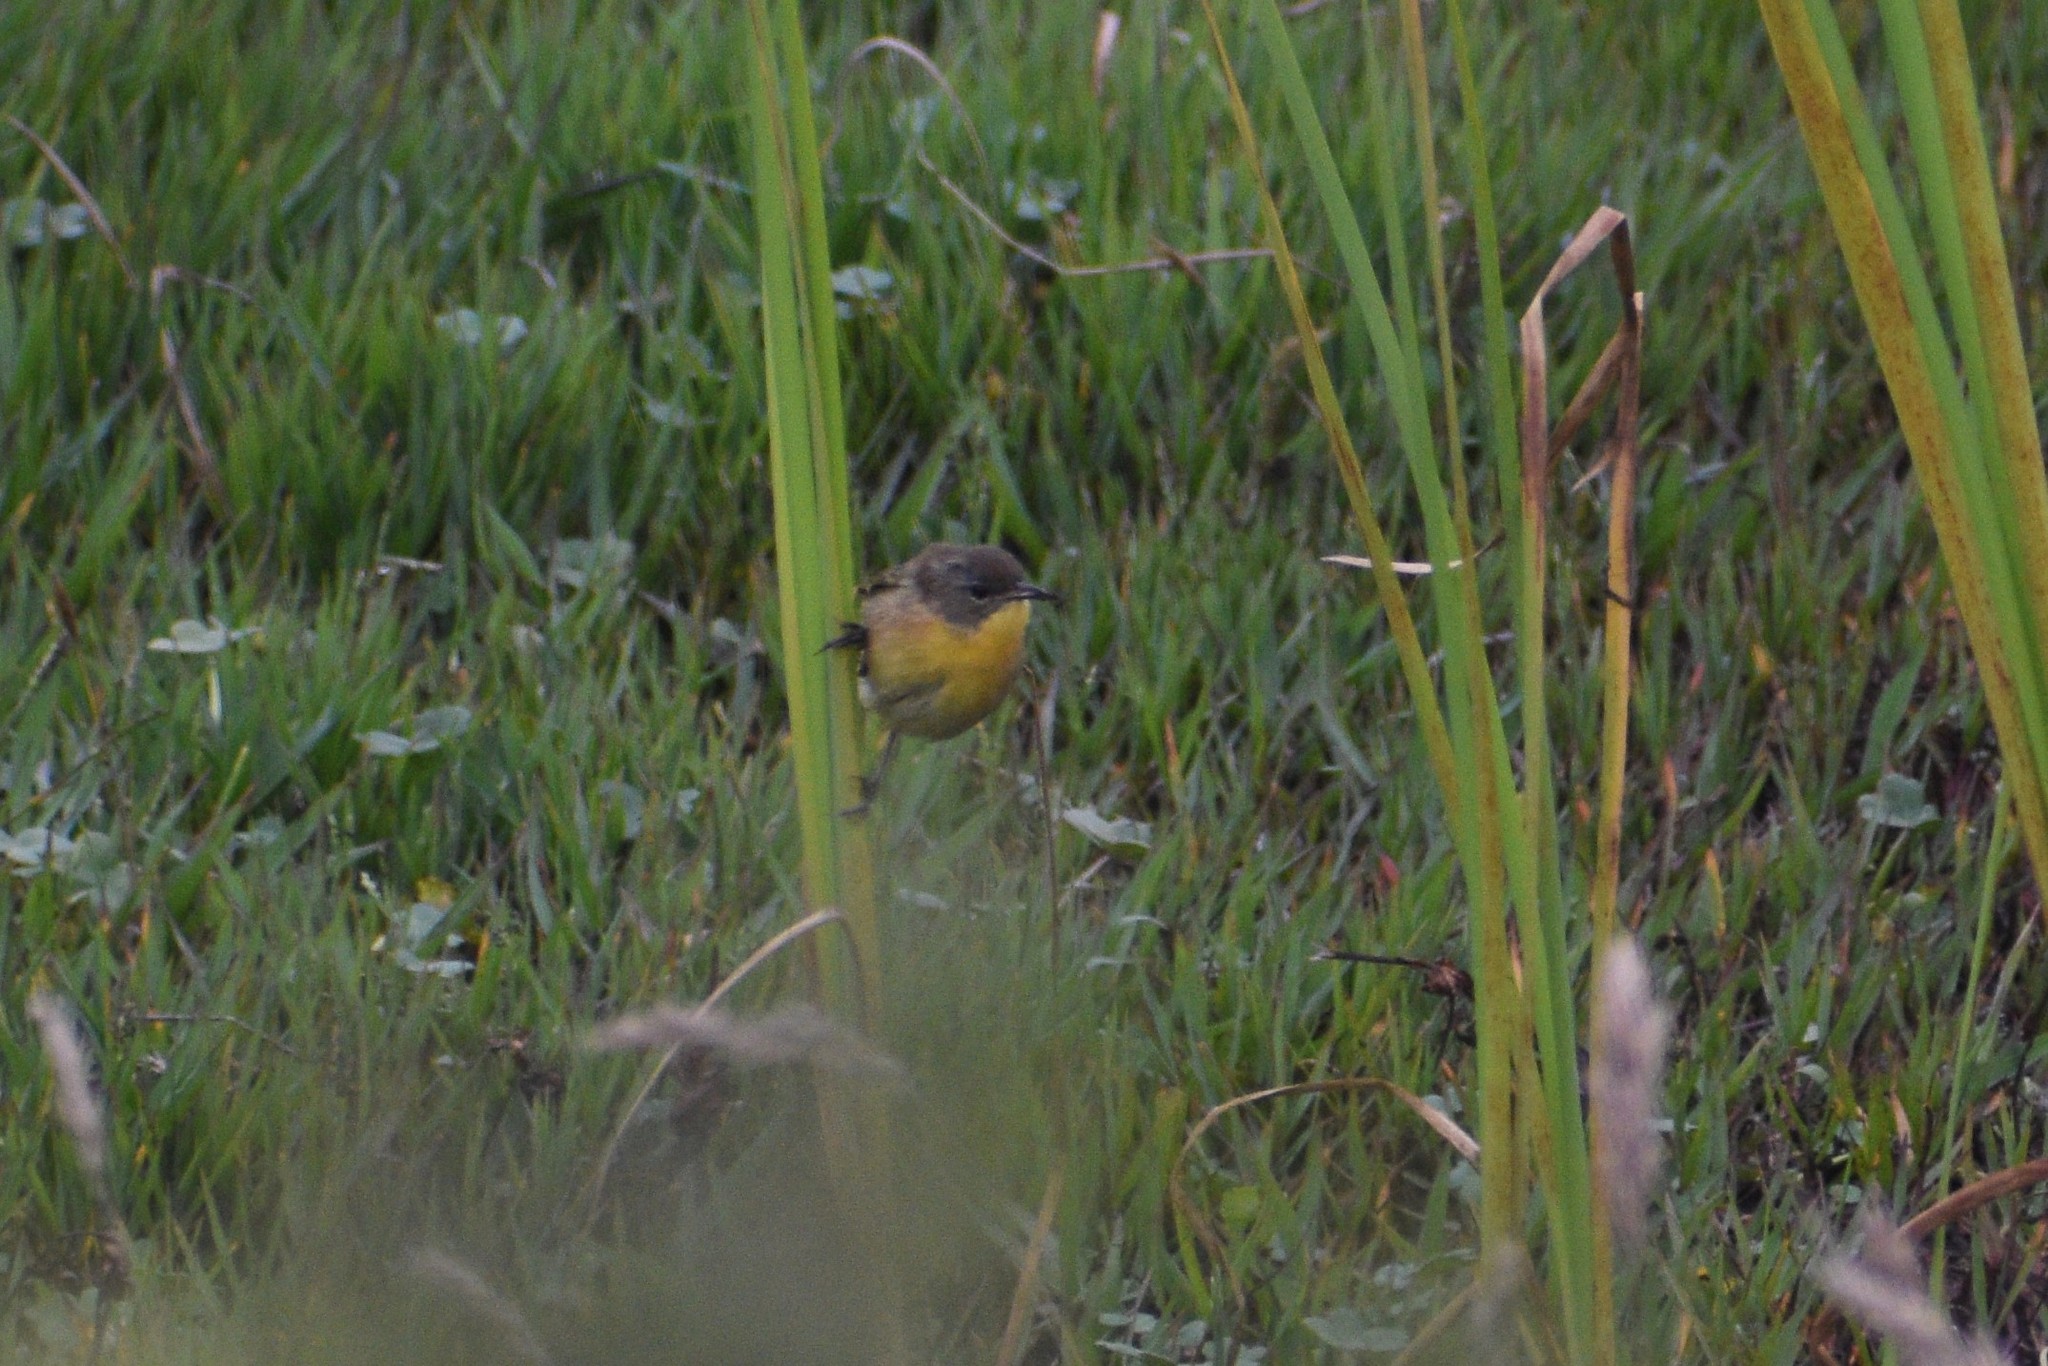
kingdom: Animalia
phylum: Chordata
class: Aves
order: Passeriformes
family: Parulidae
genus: Geothlypis
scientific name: Geothlypis trichas
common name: Common yellowthroat
